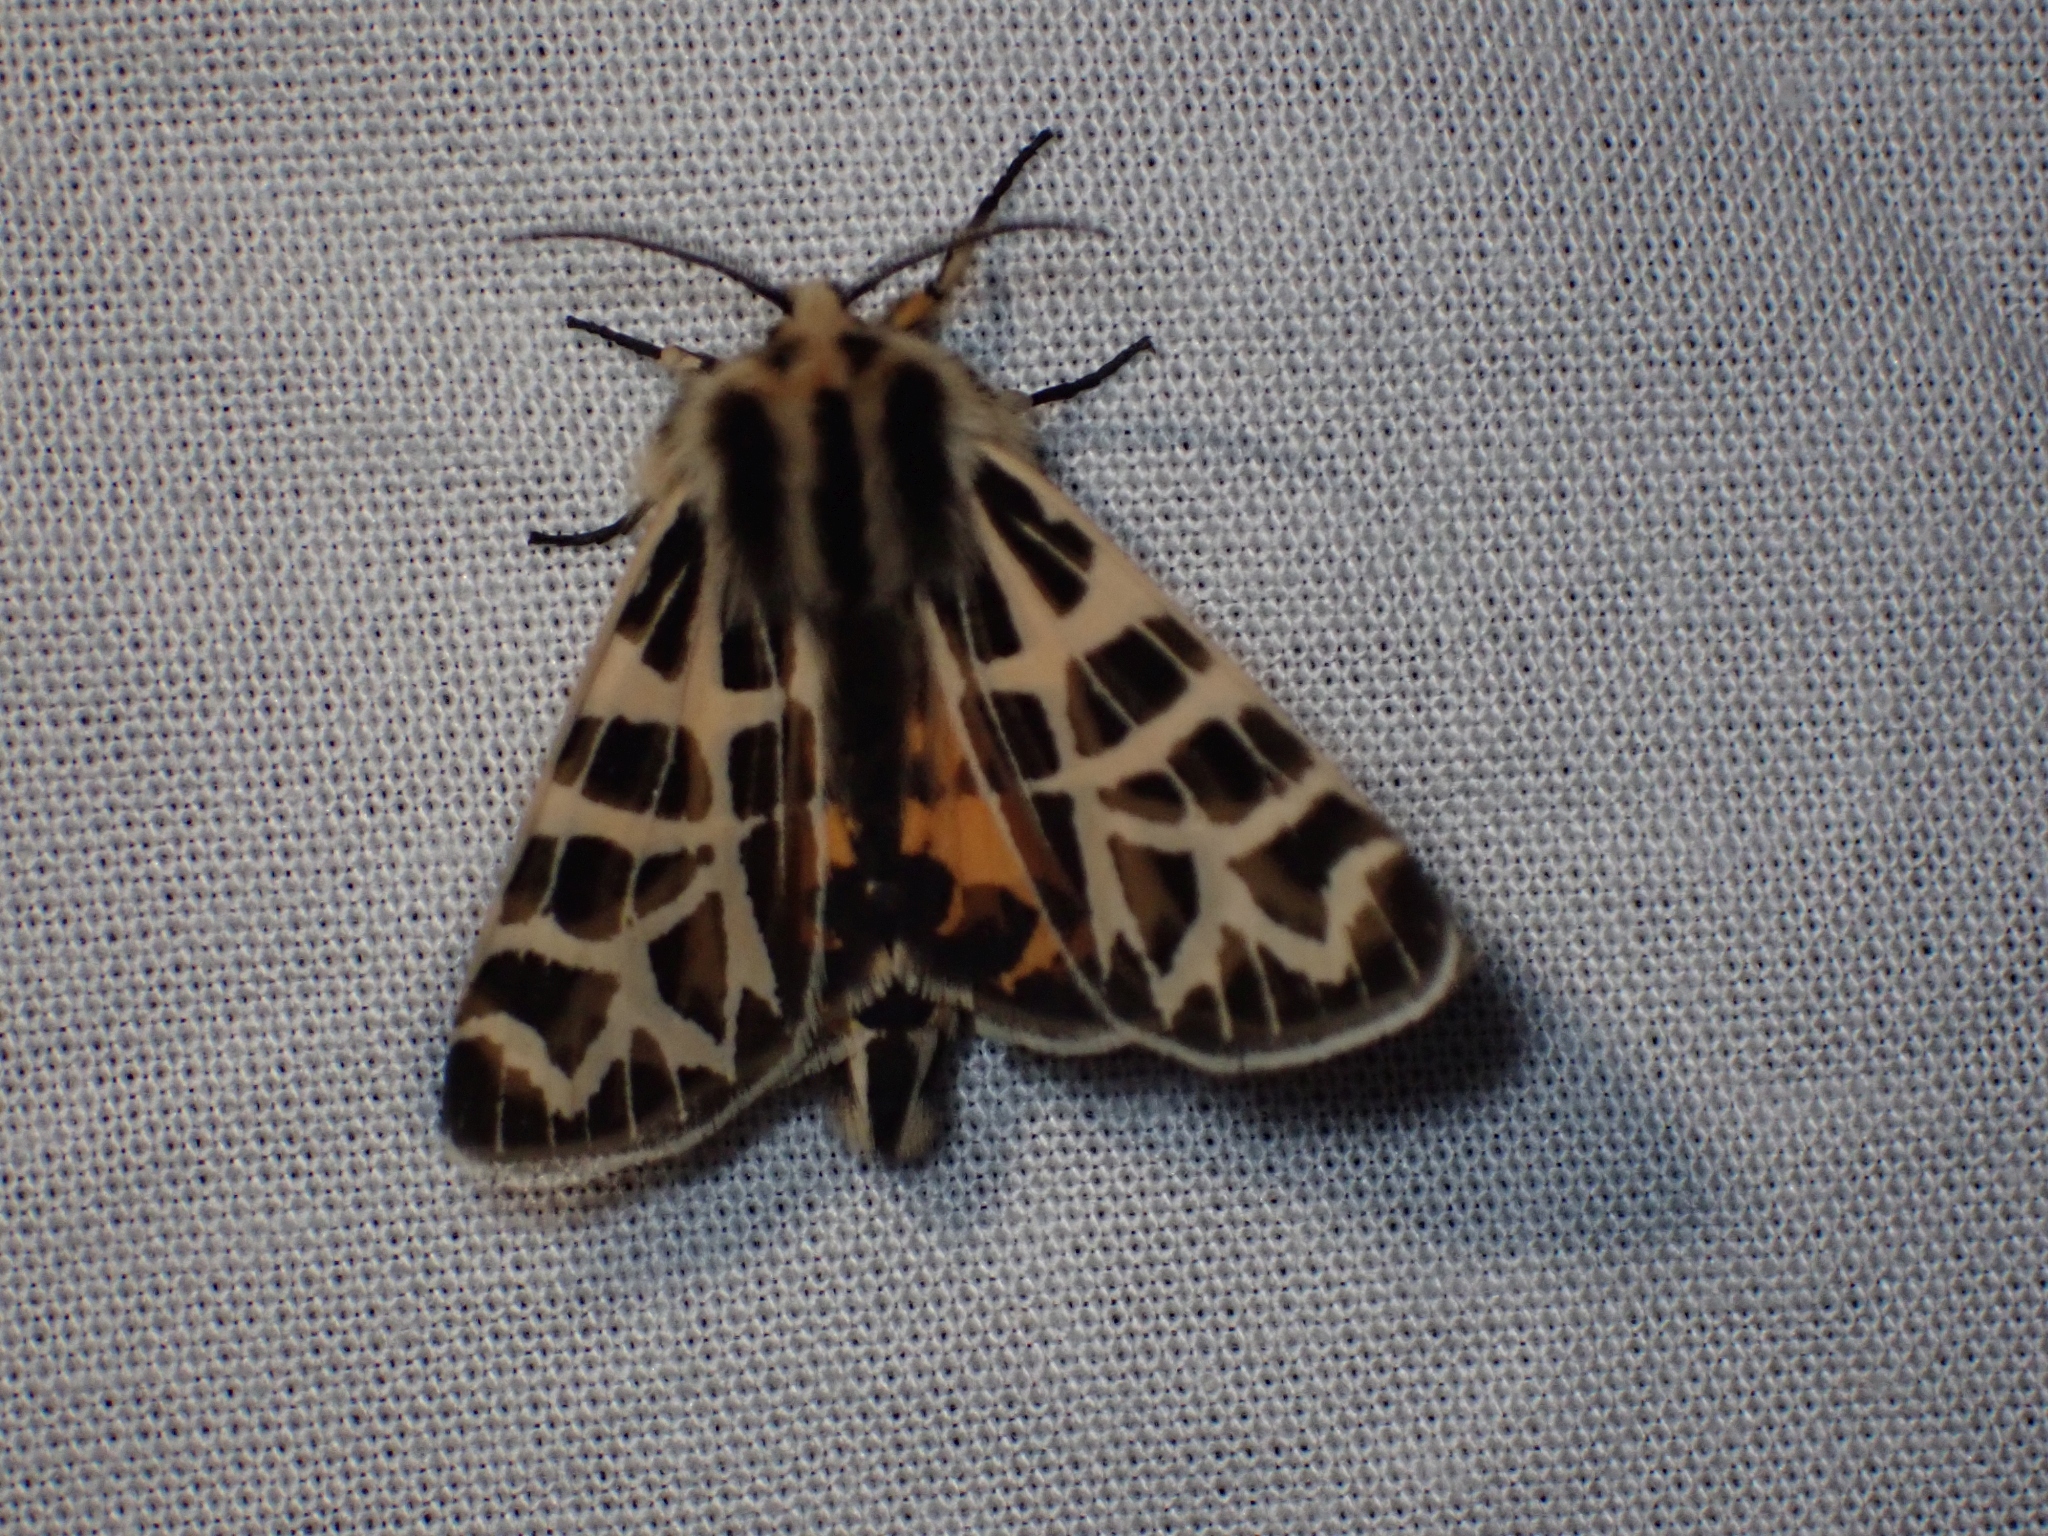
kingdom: Animalia
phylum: Arthropoda
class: Insecta
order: Lepidoptera
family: Erebidae
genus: Apantesis
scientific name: Apantesis
